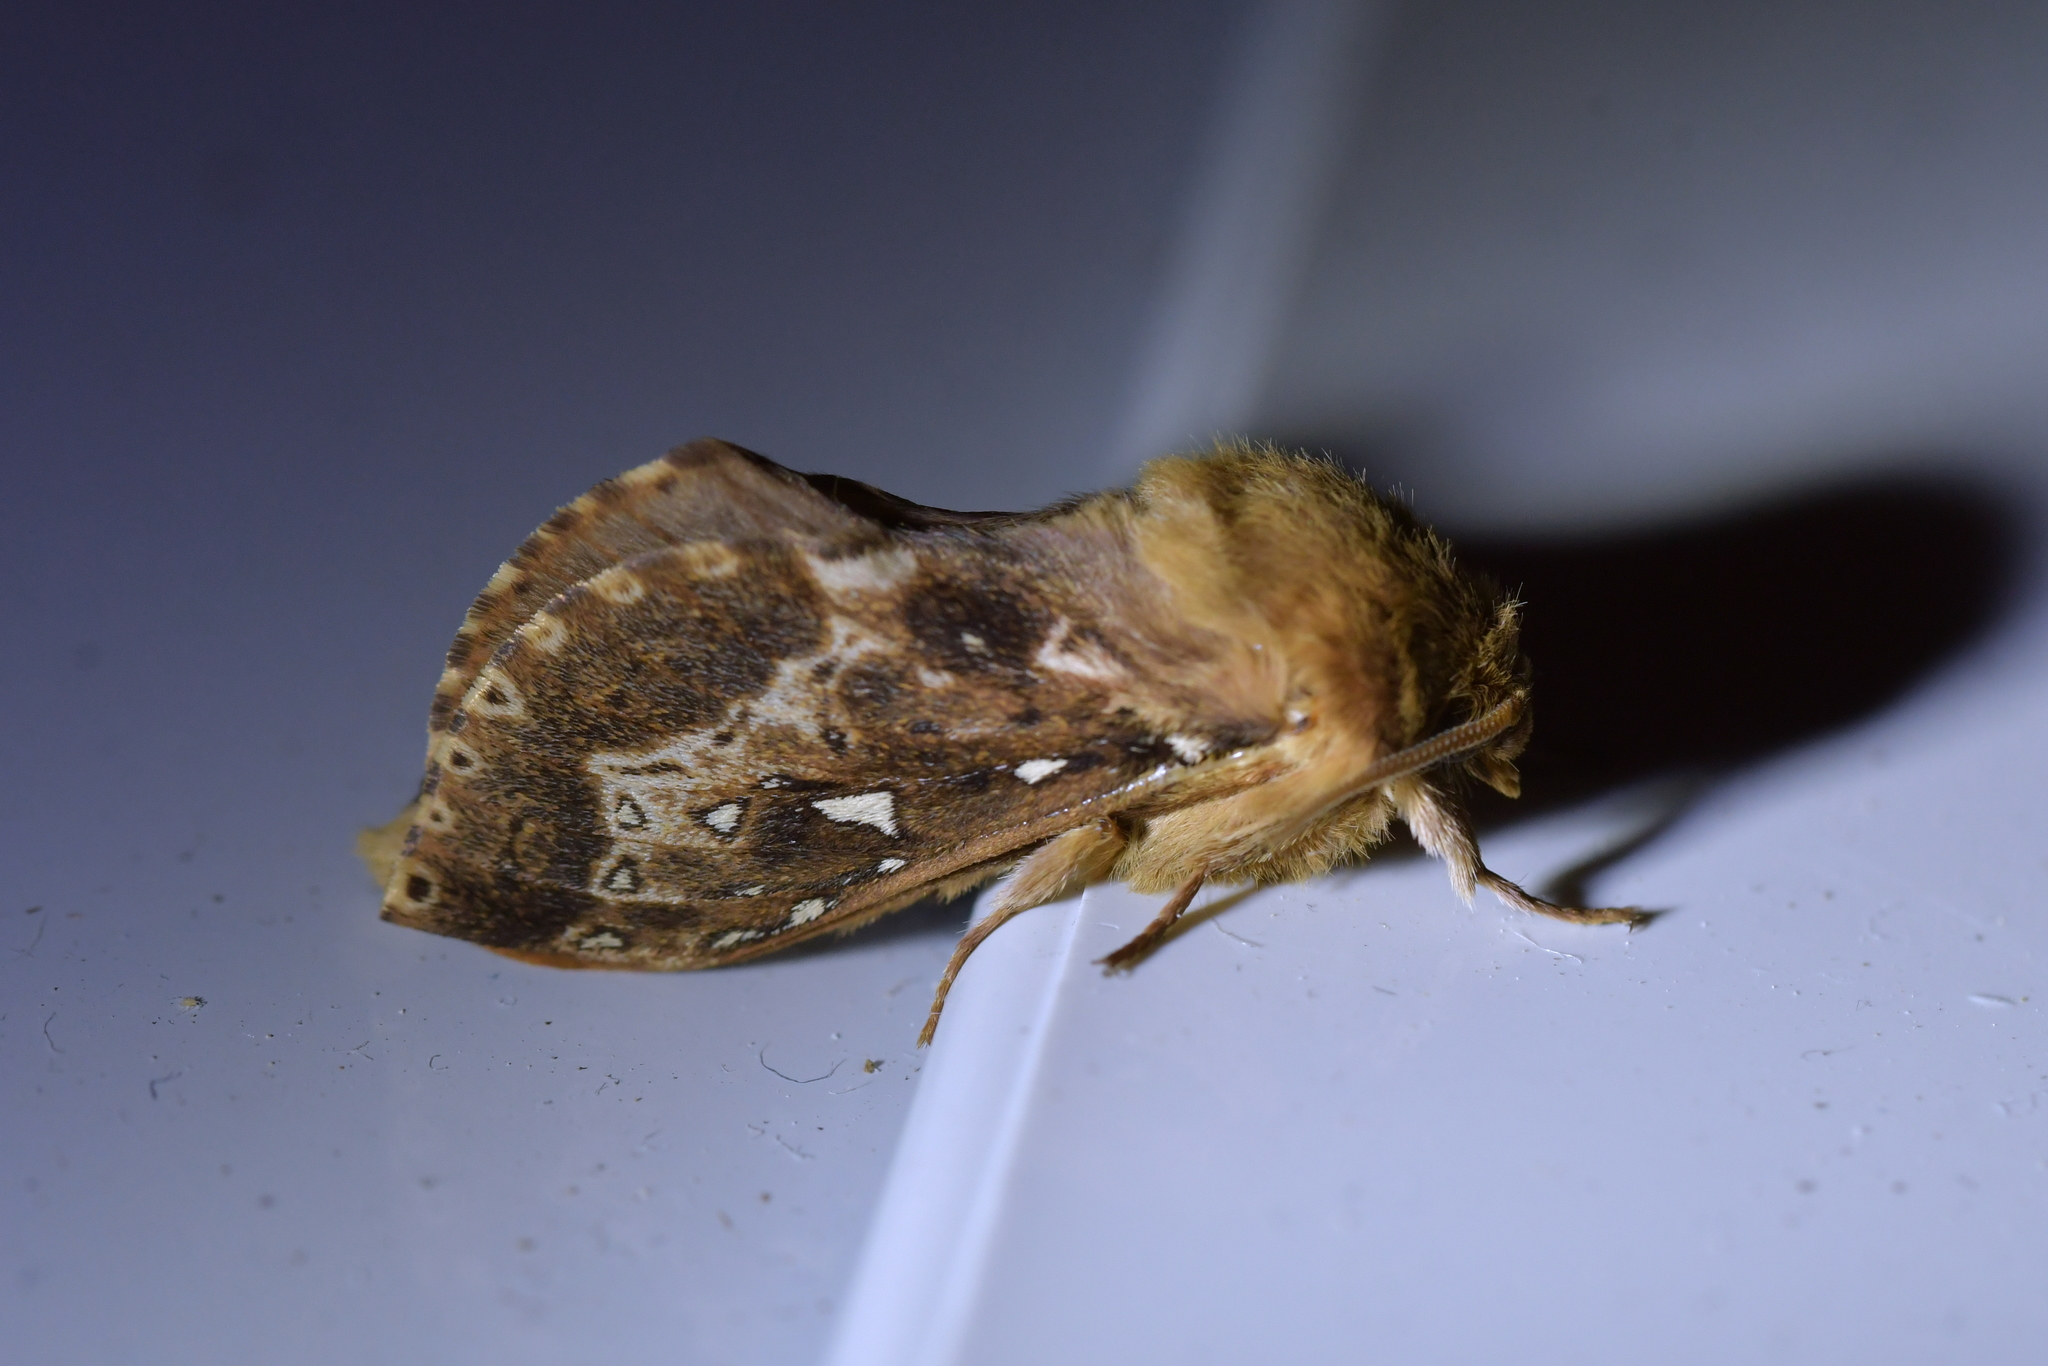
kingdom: Animalia
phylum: Arthropoda
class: Insecta
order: Lepidoptera
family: Hepialidae
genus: Wiseana
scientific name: Wiseana cervinata
